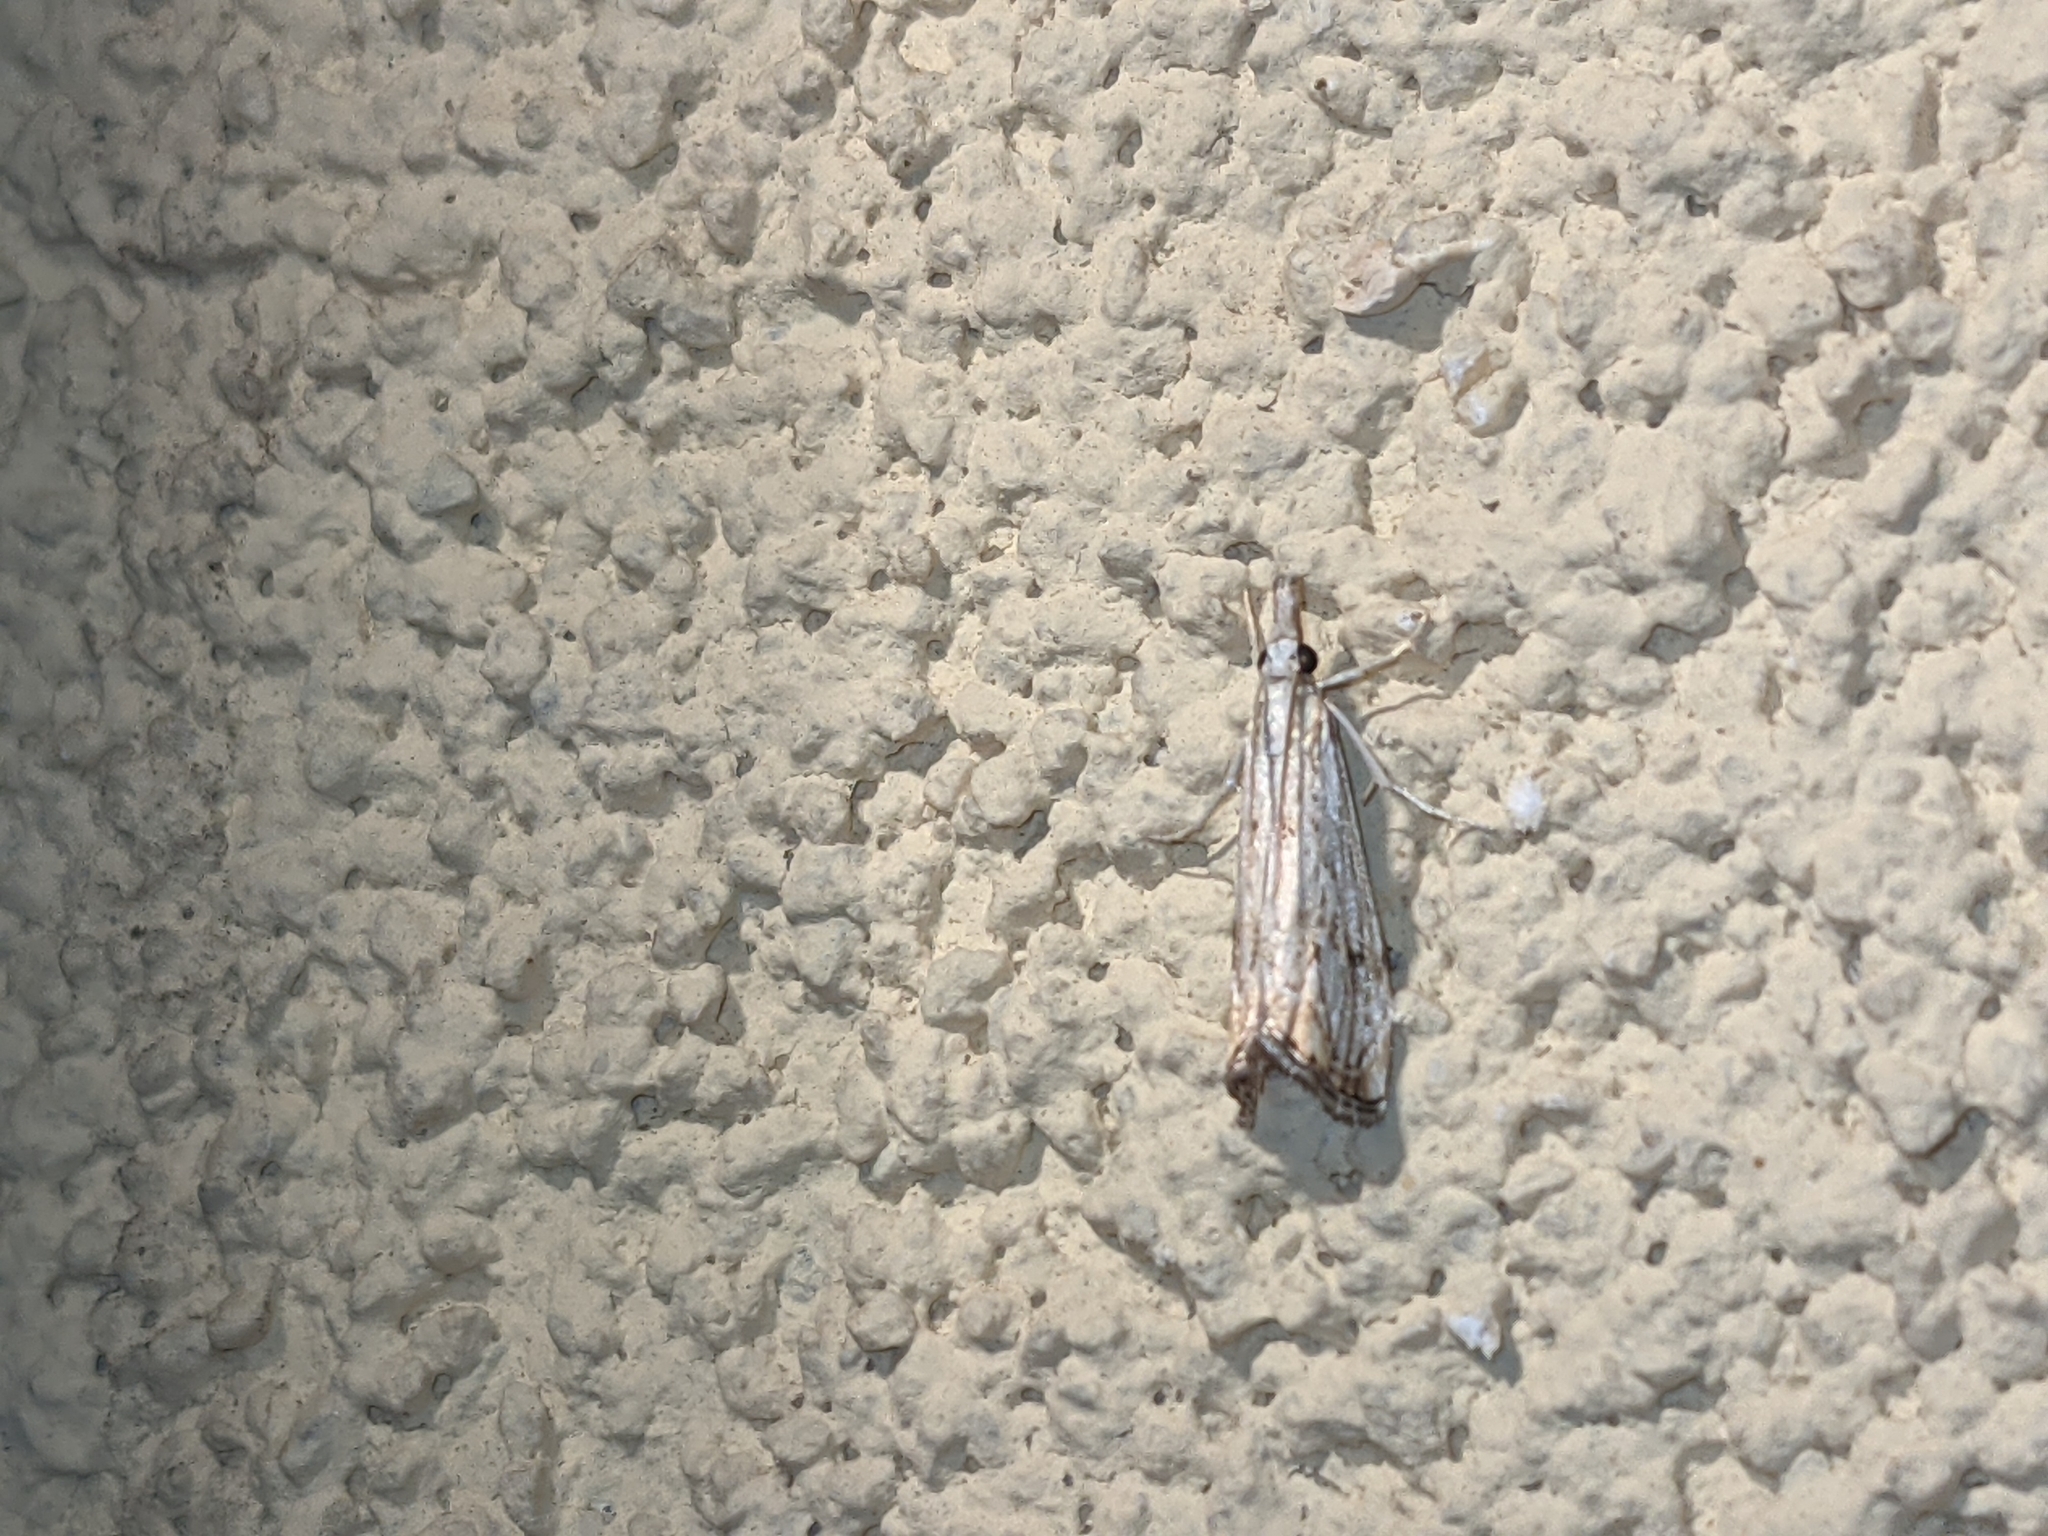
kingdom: Animalia
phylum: Arthropoda
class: Insecta
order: Lepidoptera
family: Crambidae
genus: Catoptria
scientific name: Catoptria falsella
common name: Chequered grass-veneer
